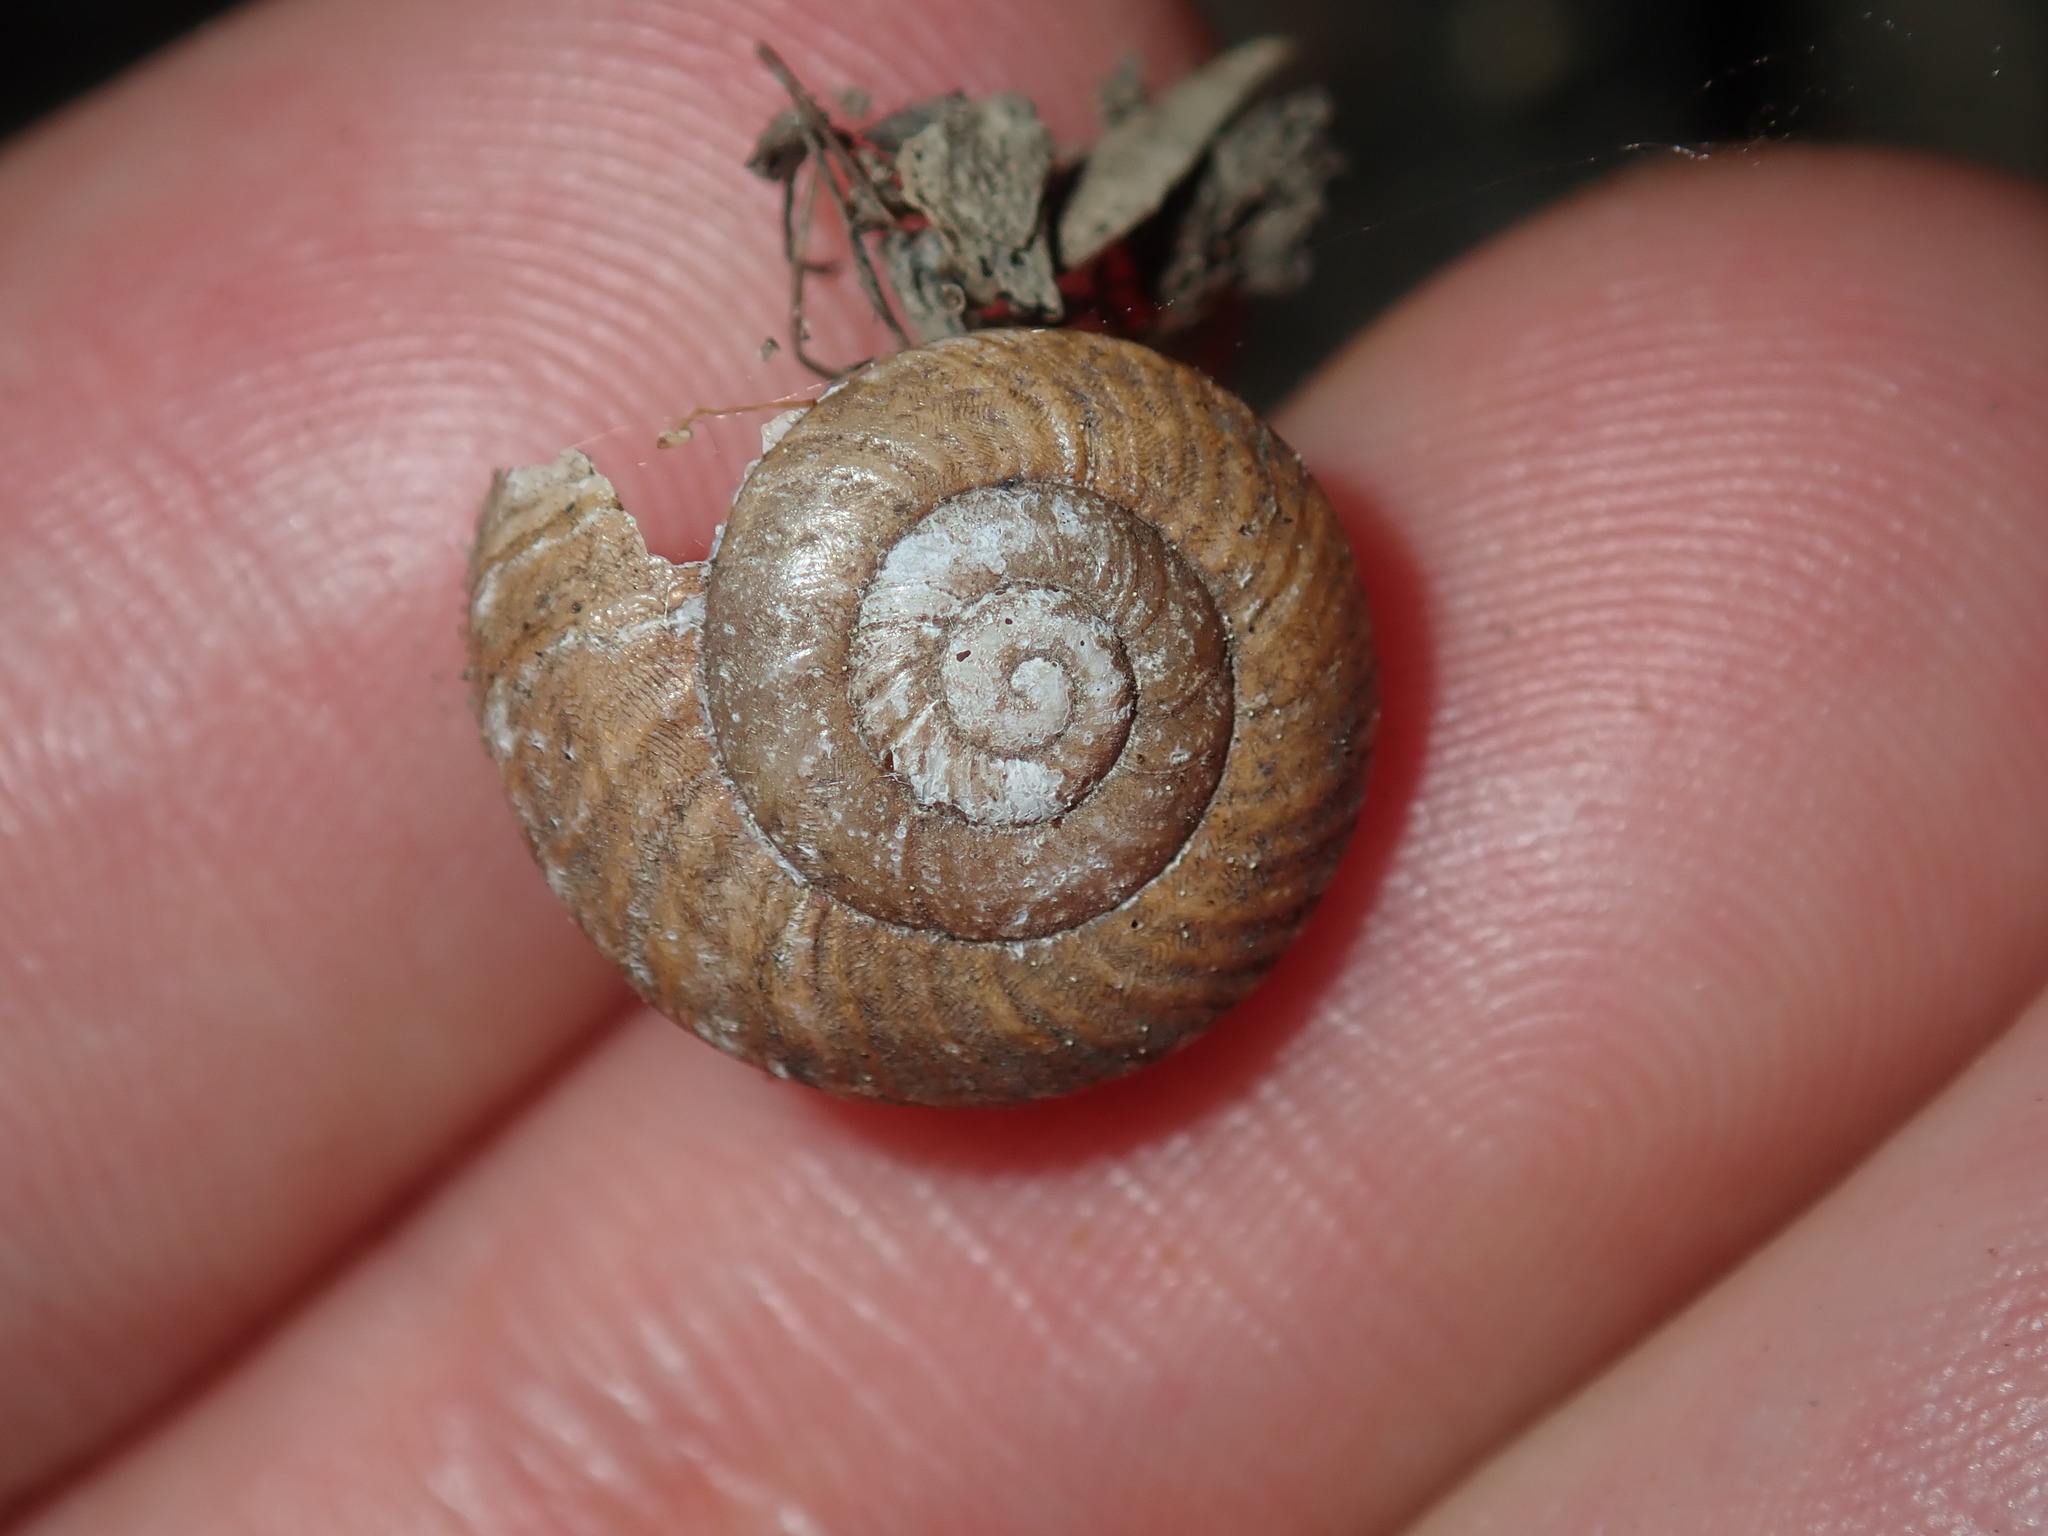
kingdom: Animalia
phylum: Mollusca
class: Gastropoda
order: Stylommatophora
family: Camaenidae
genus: Sauroconcha
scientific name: Sauroconcha sheai
